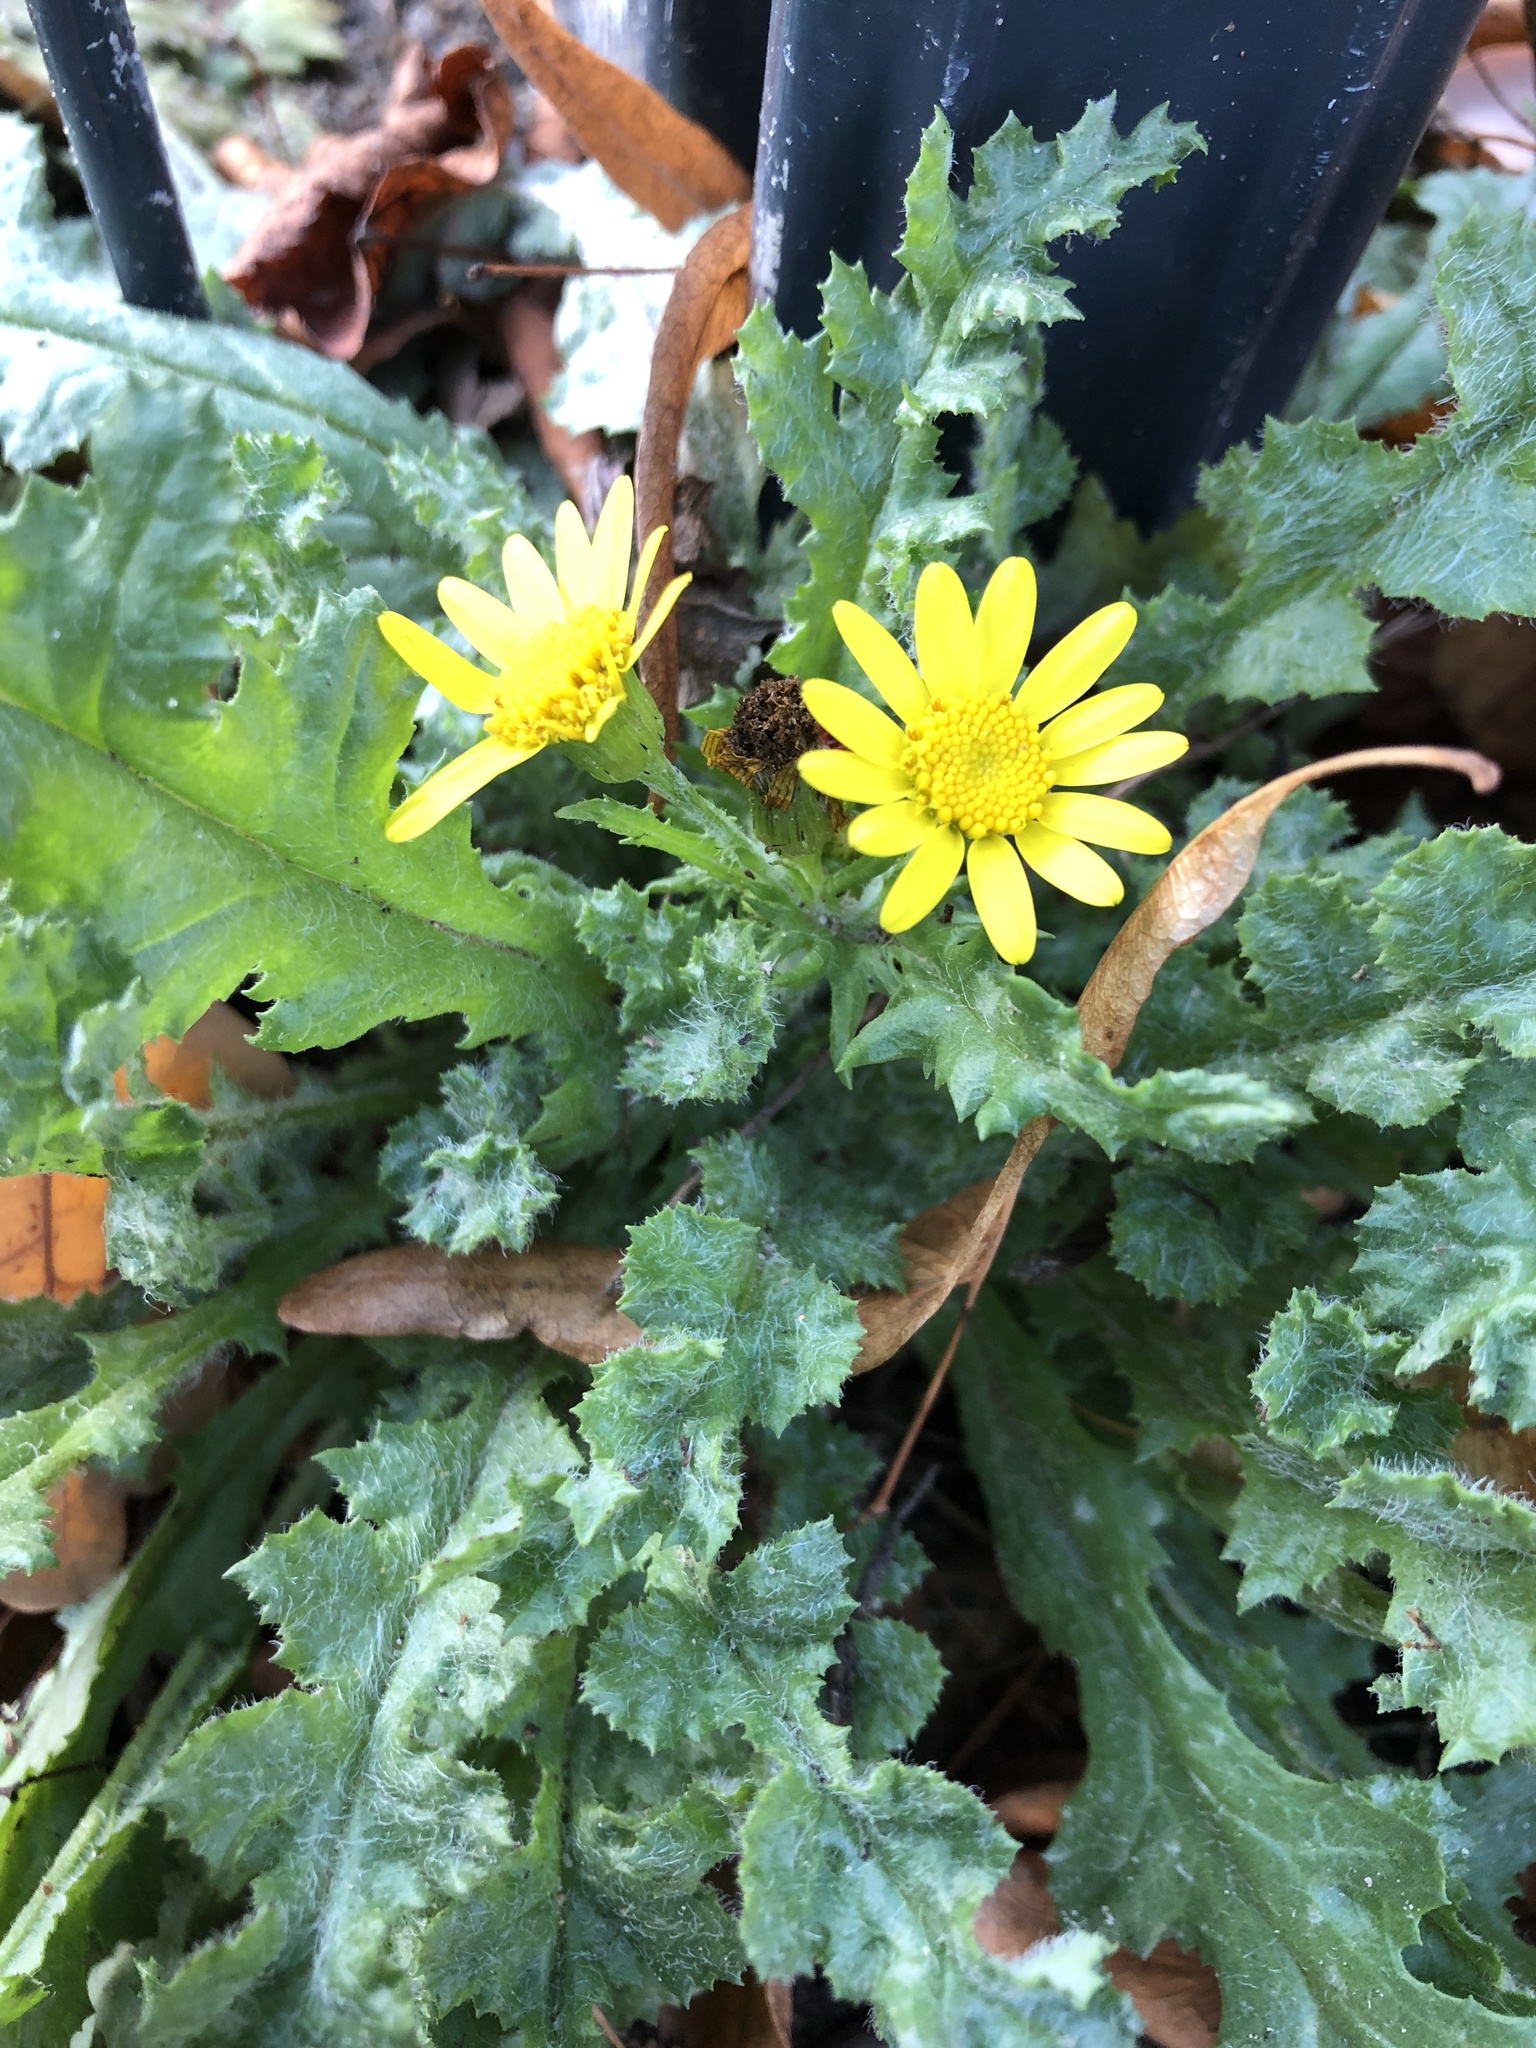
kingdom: Plantae
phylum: Tracheophyta
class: Magnoliopsida
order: Asterales
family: Asteraceae
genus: Senecio
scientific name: Senecio vernalis
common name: Eastern groundsel
